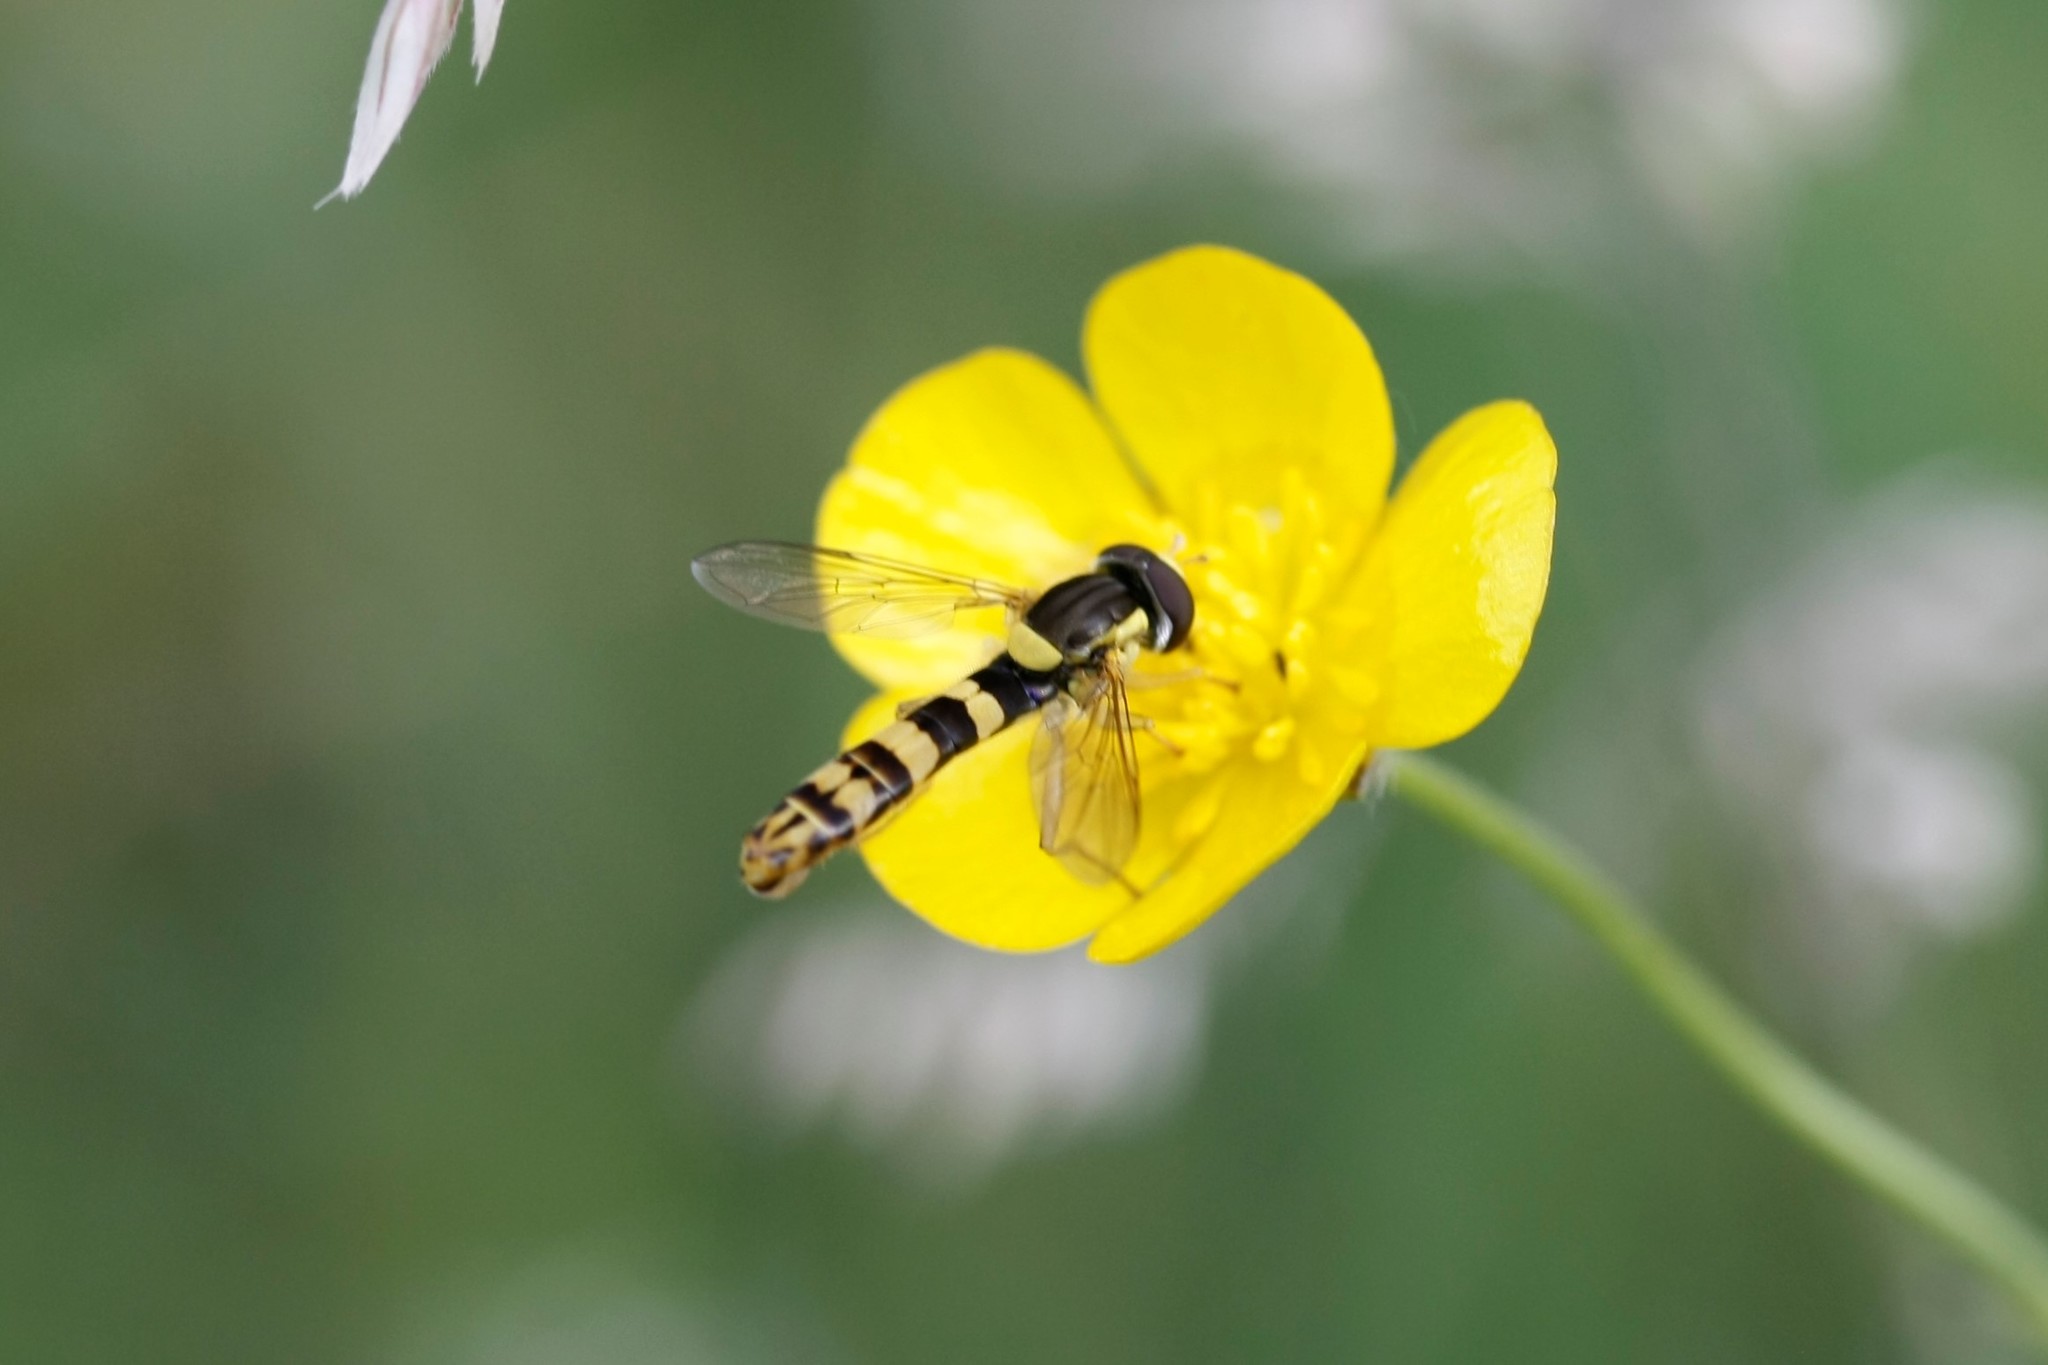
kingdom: Animalia
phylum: Arthropoda
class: Insecta
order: Diptera
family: Syrphidae
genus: Sphaerophoria
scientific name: Sphaerophoria scripta
